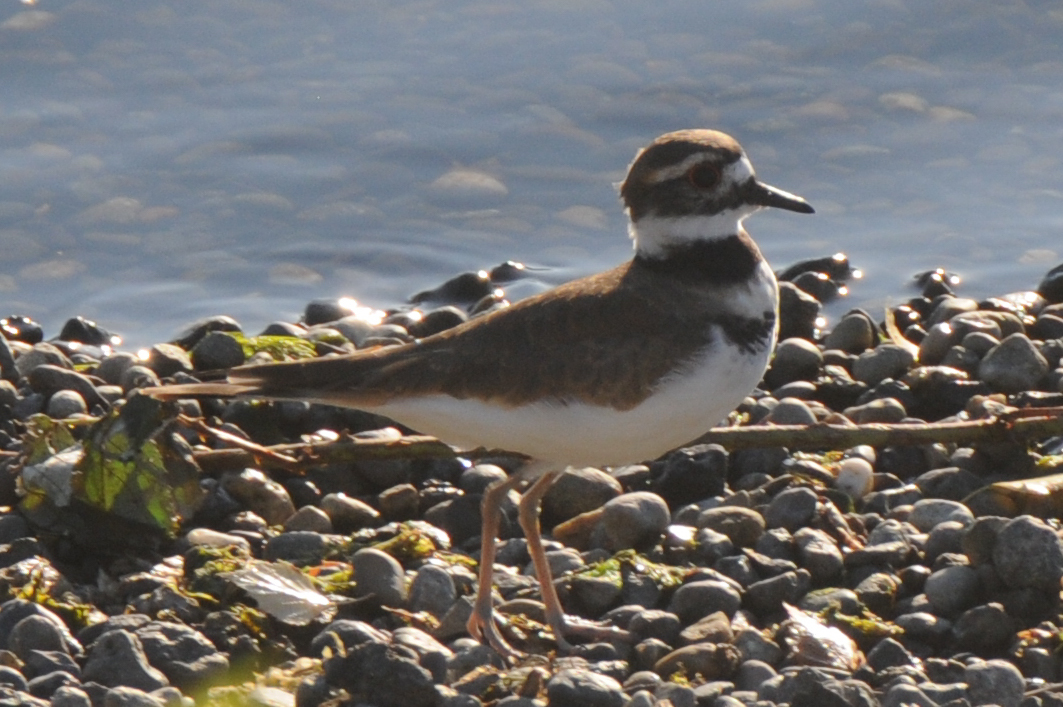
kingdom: Animalia
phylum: Chordata
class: Aves
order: Charadriiformes
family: Charadriidae
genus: Charadrius
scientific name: Charadrius vociferus
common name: Killdeer
